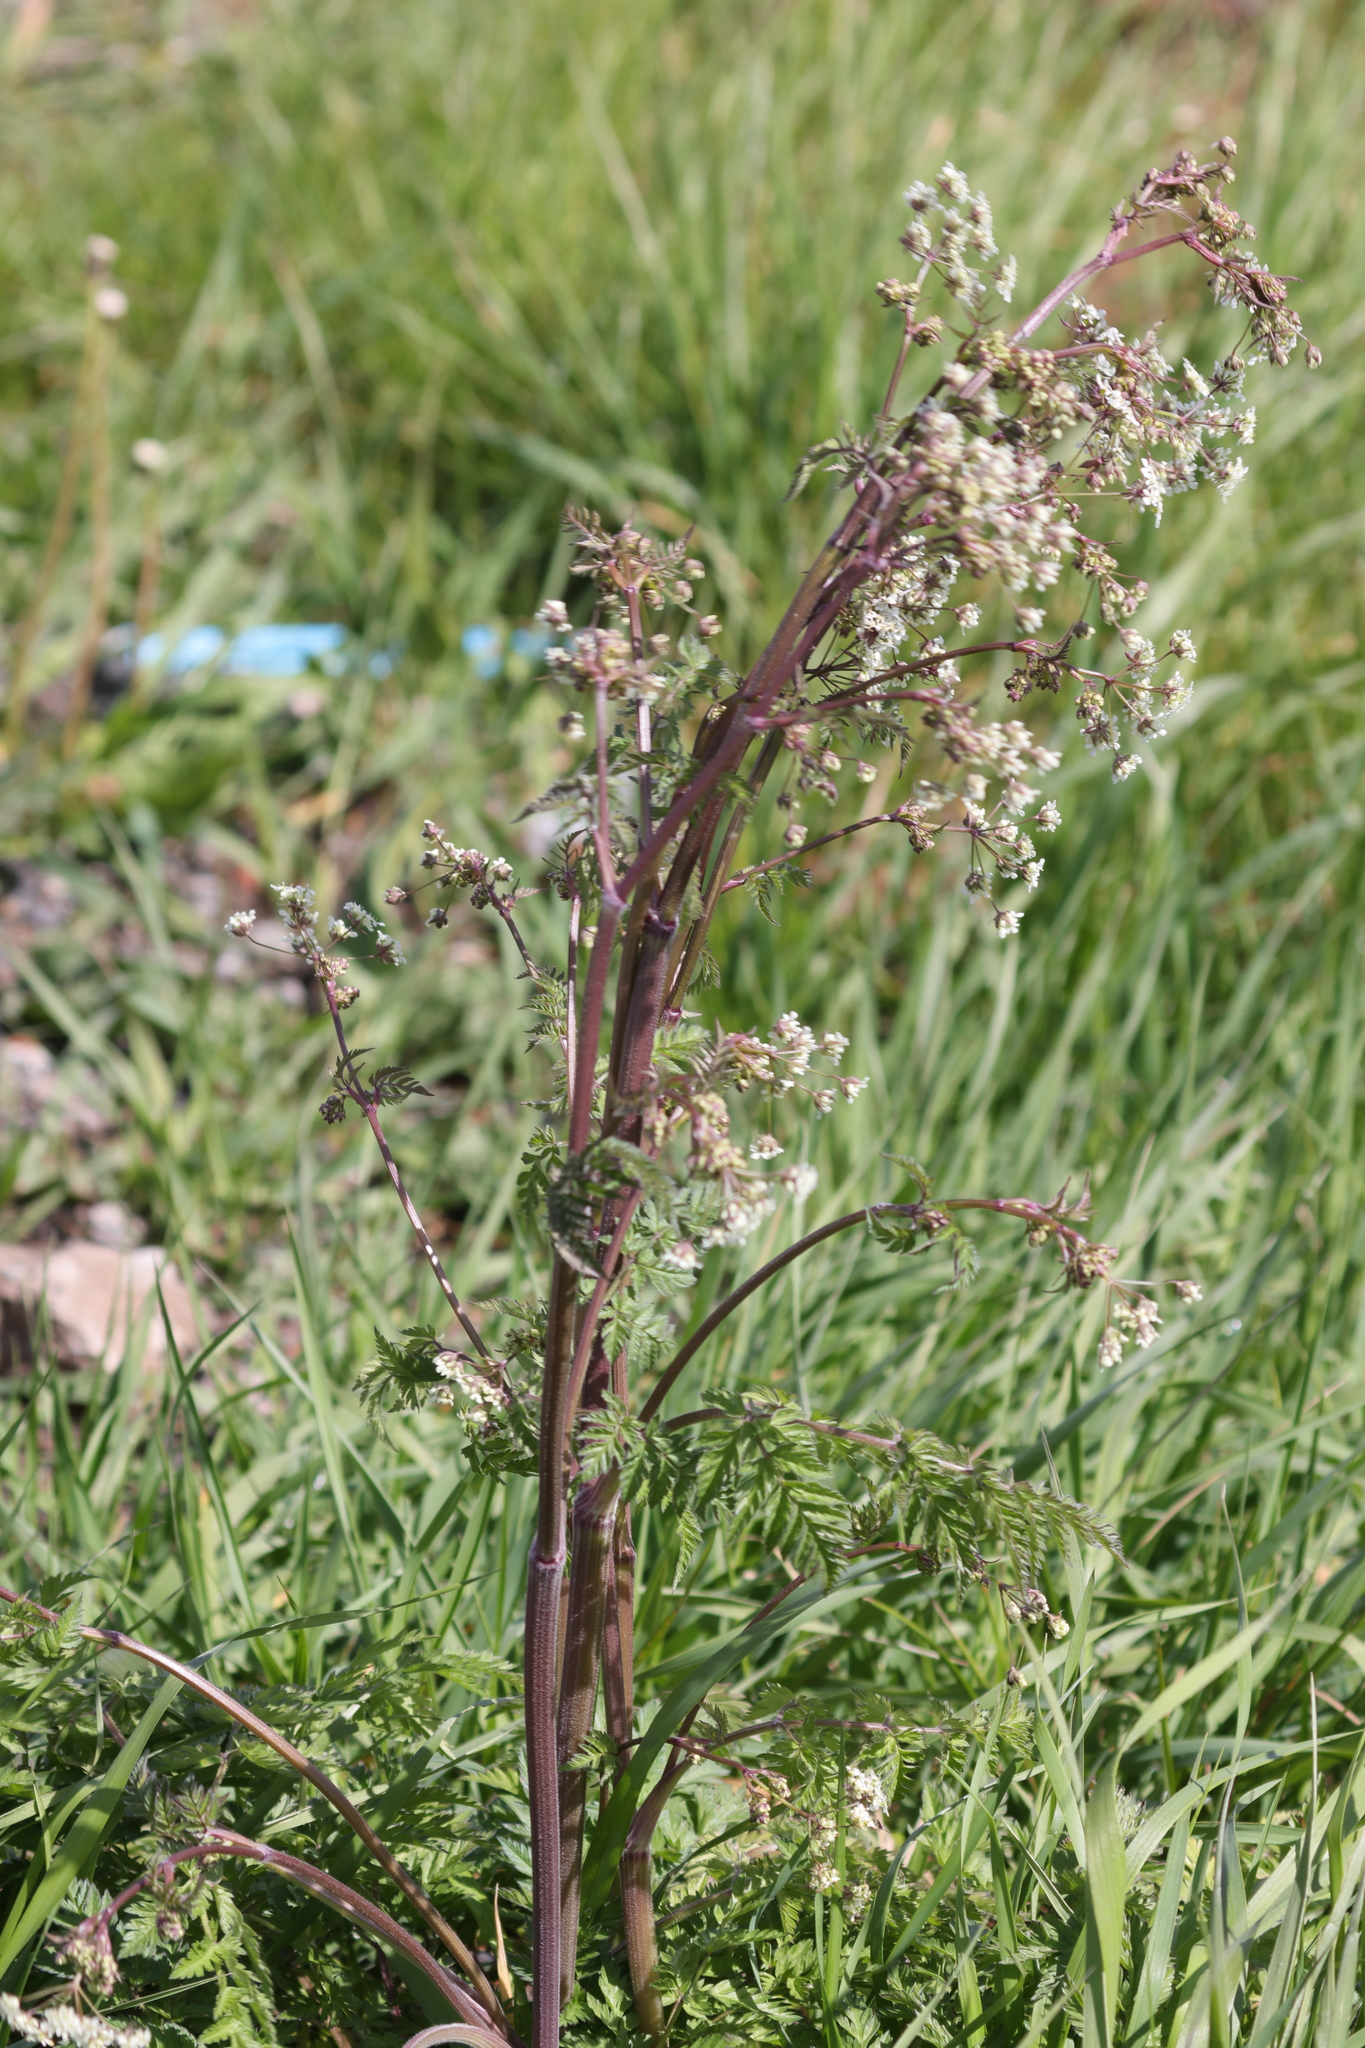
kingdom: Plantae
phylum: Tracheophyta
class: Magnoliopsida
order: Apiales
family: Apiaceae
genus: Anthriscus
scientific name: Anthriscus sylvestris
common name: Cow parsley
